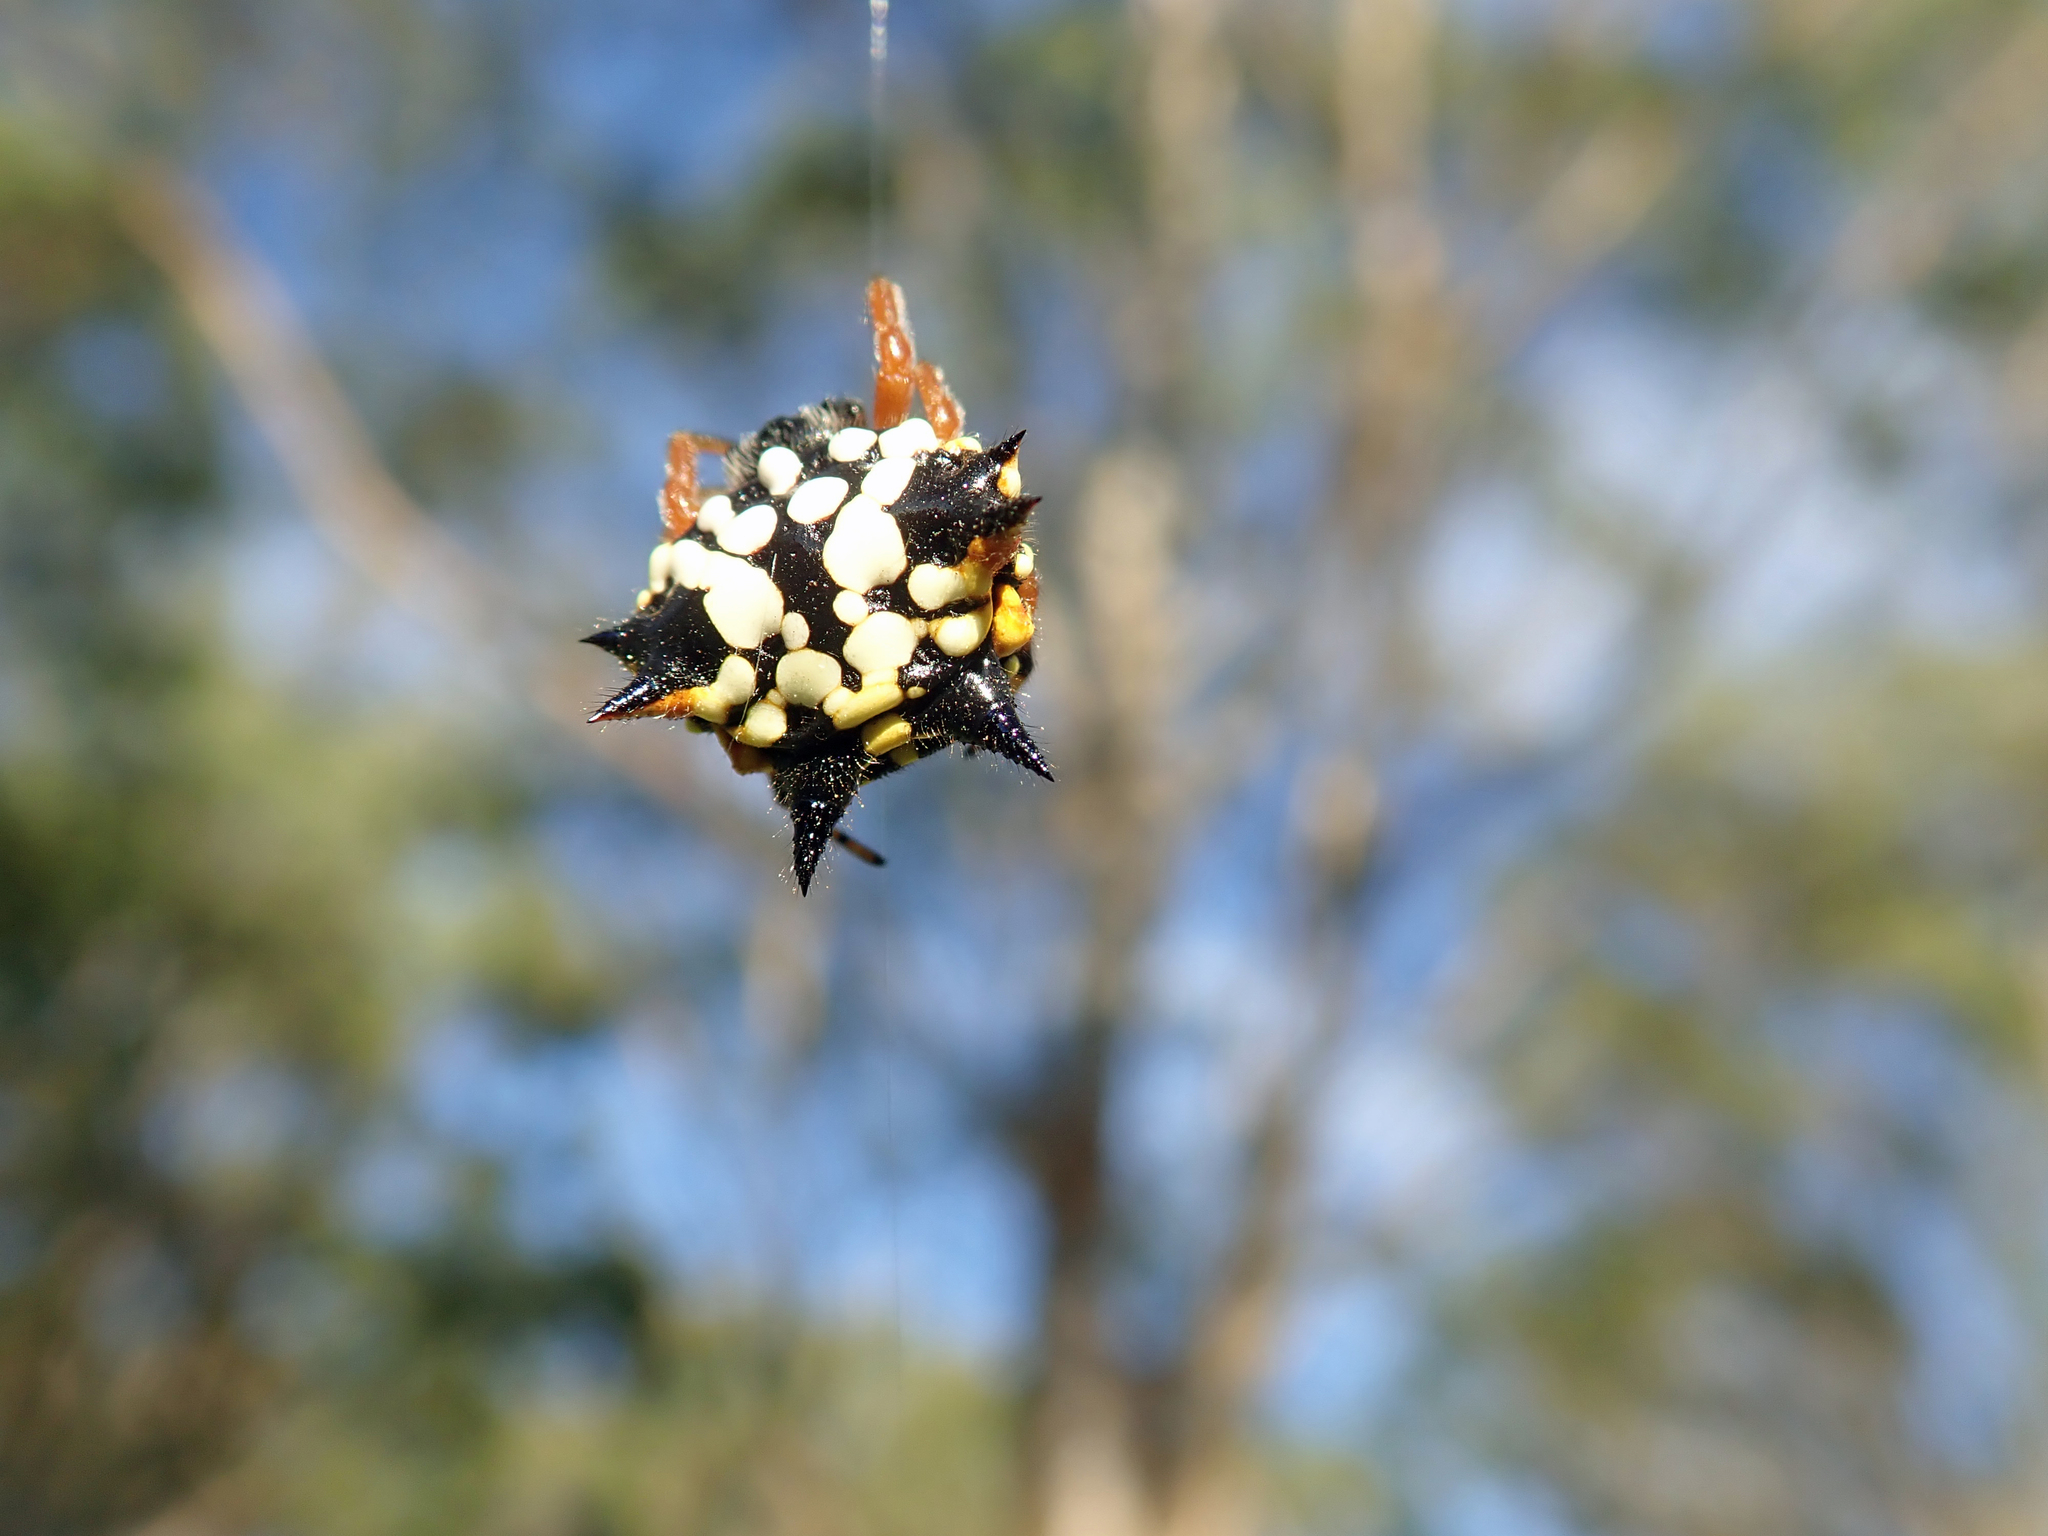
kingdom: Animalia
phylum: Arthropoda
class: Arachnida
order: Araneae
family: Araneidae
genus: Austracantha
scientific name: Austracantha minax
